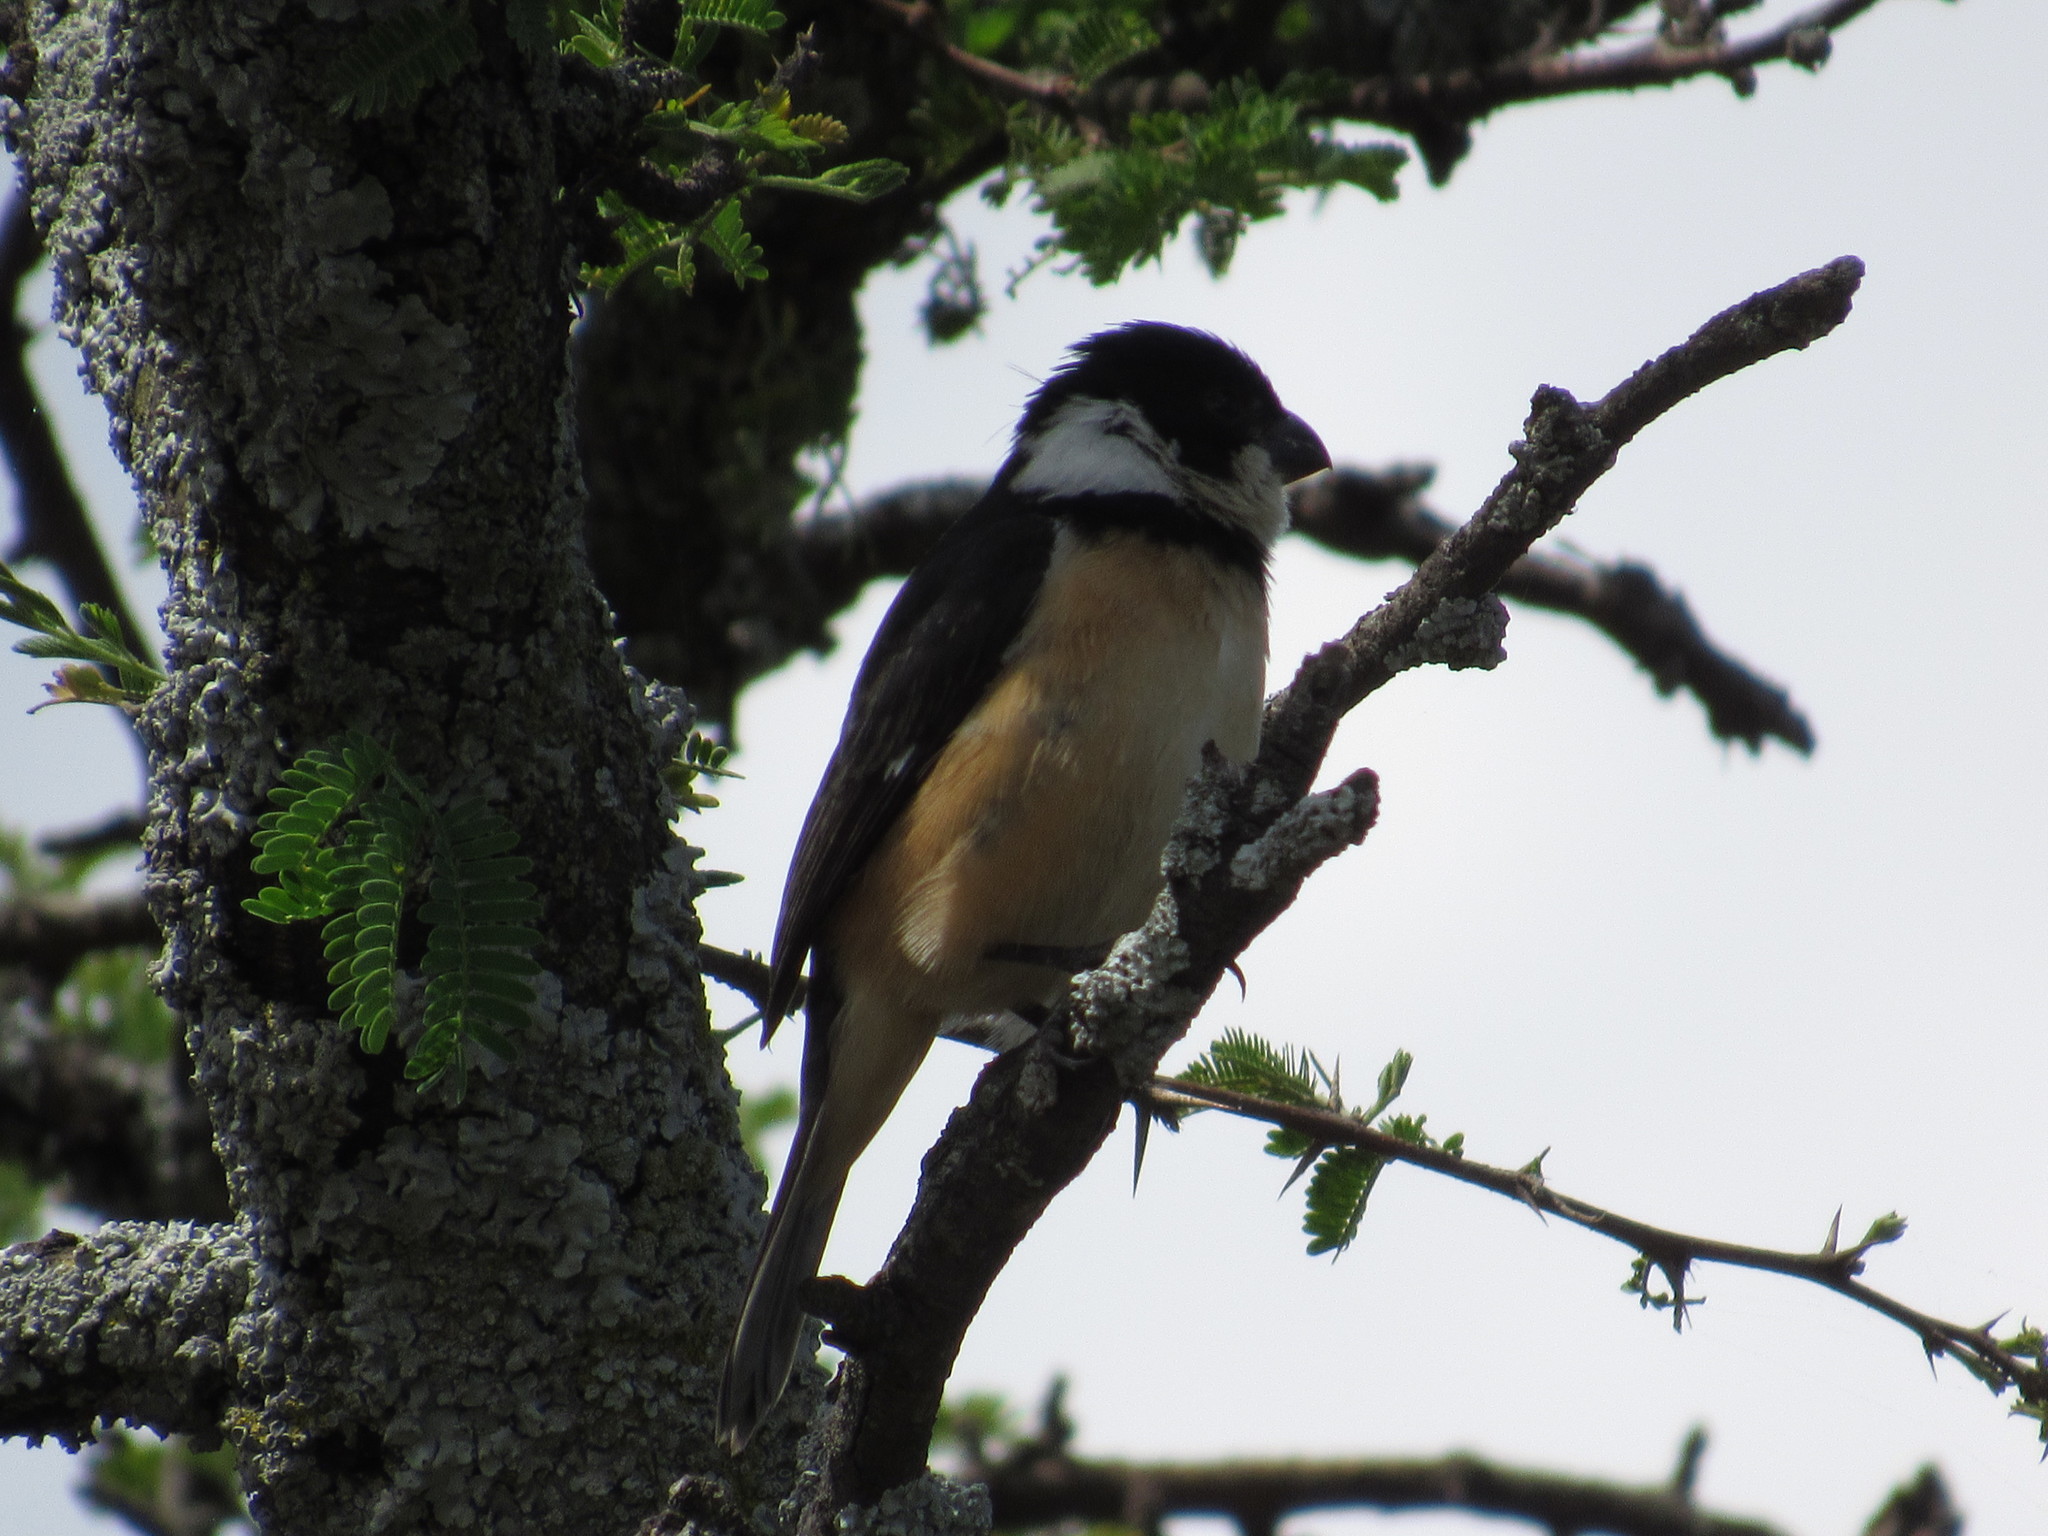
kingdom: Animalia
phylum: Chordata
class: Aves
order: Passeriformes
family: Thraupidae
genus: Sporophila
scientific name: Sporophila torqueola
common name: White-collared seedeater
